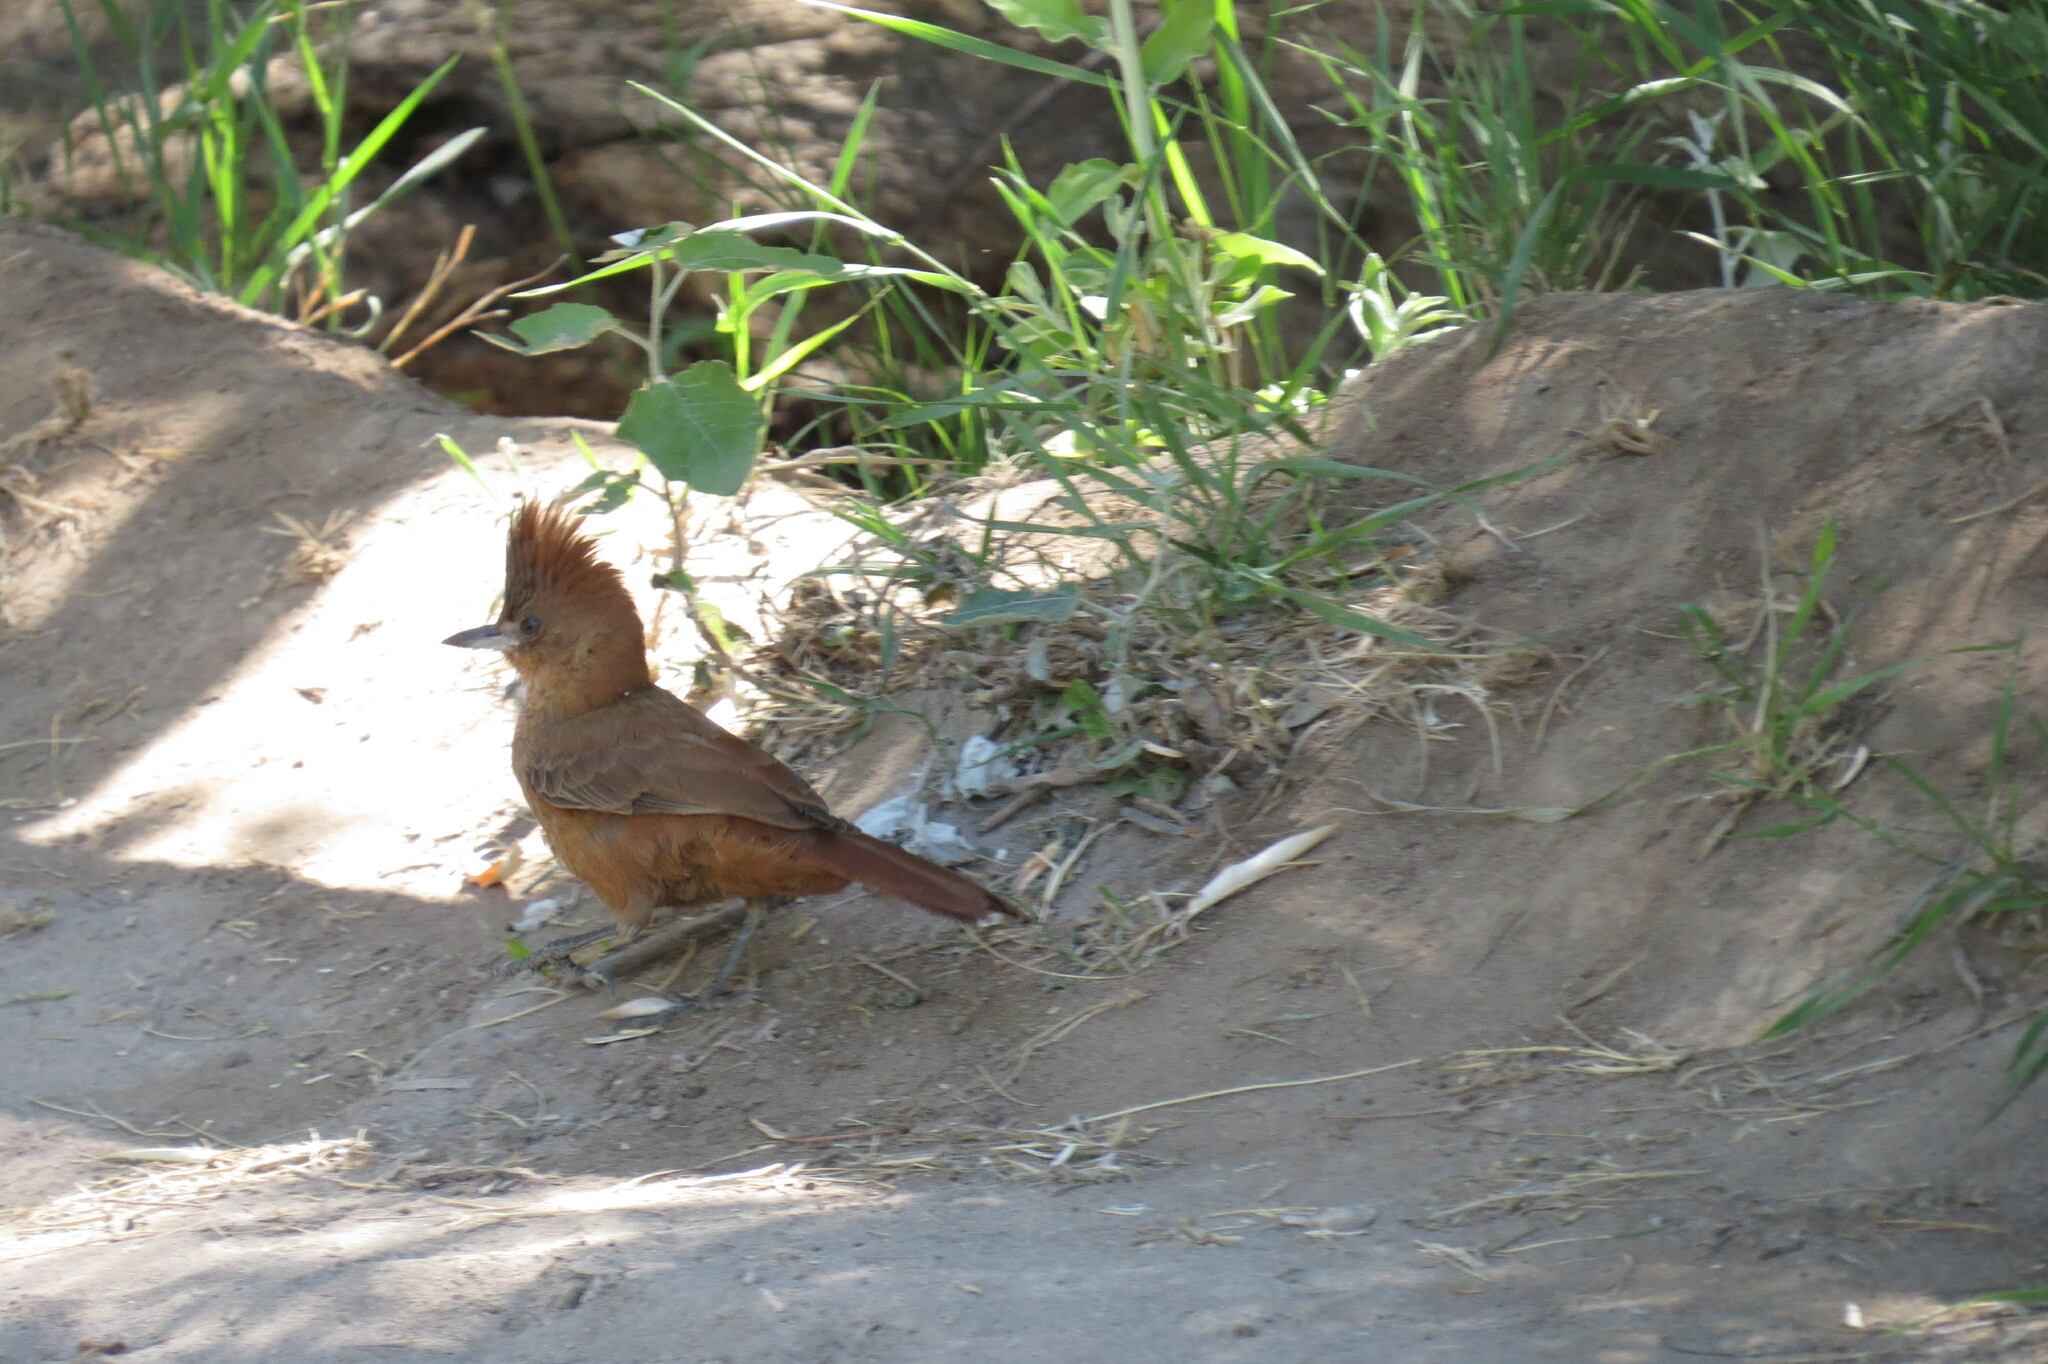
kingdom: Animalia
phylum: Chordata
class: Aves
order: Passeriformes
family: Furnariidae
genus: Pseudoseisura
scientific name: Pseudoseisura lophotes
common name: Brown cacholote
